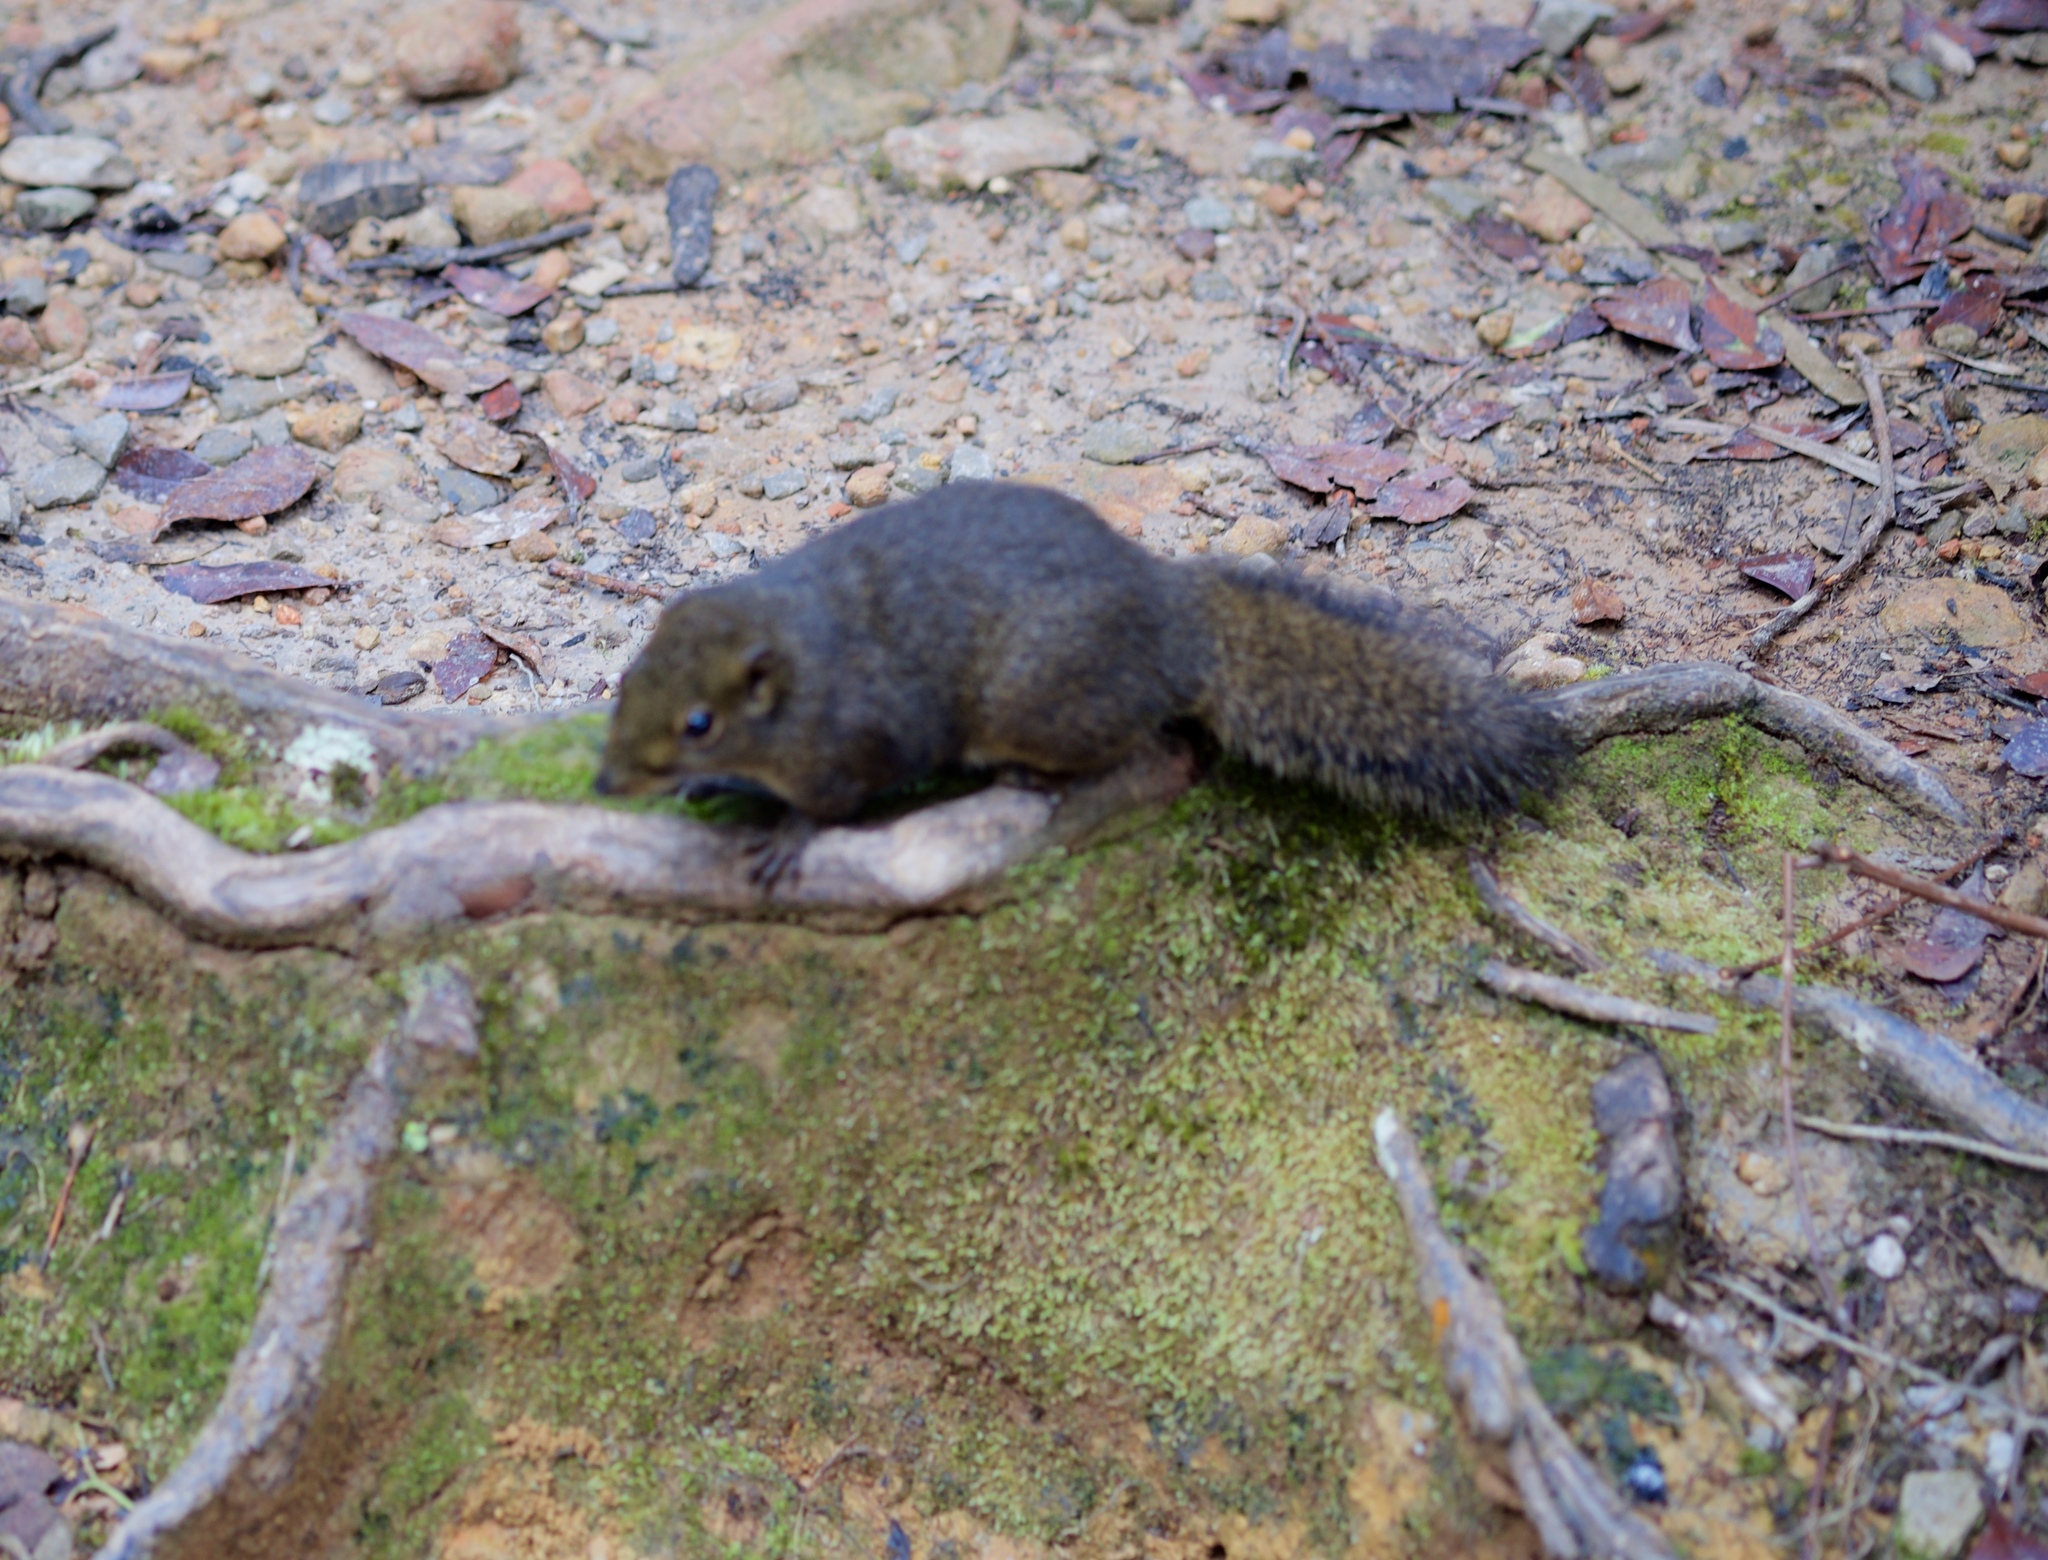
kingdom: Animalia
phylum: Chordata
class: Mammalia
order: Rodentia
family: Sciuridae
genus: Sundasciurus
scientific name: Sundasciurus everetti
